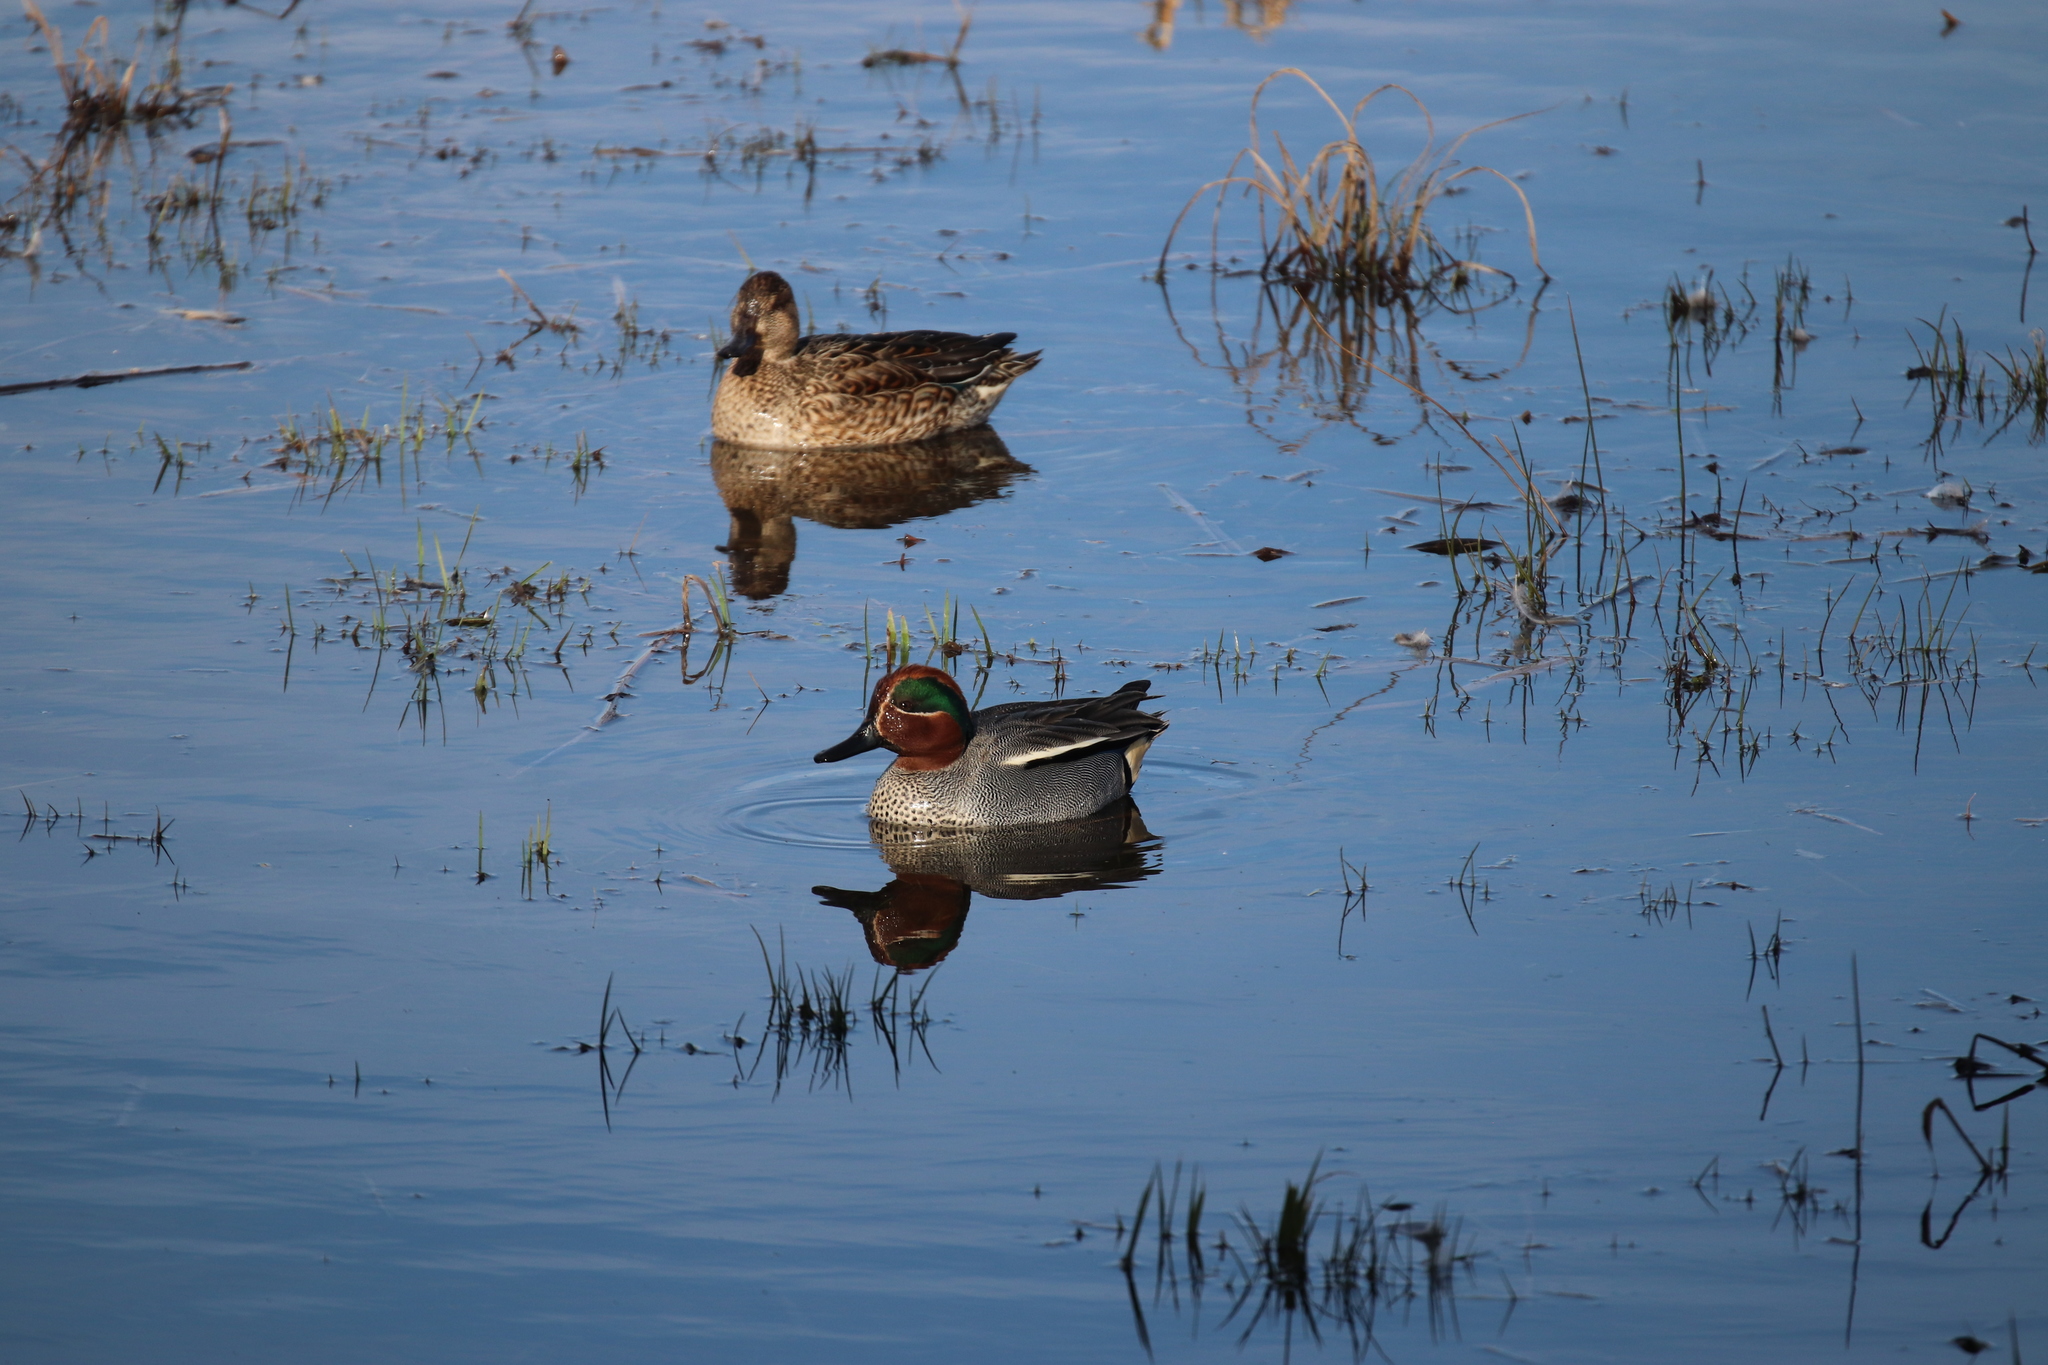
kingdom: Animalia
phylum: Chordata
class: Aves
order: Anseriformes
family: Anatidae
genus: Anas
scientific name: Anas crecca
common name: Eurasian teal
